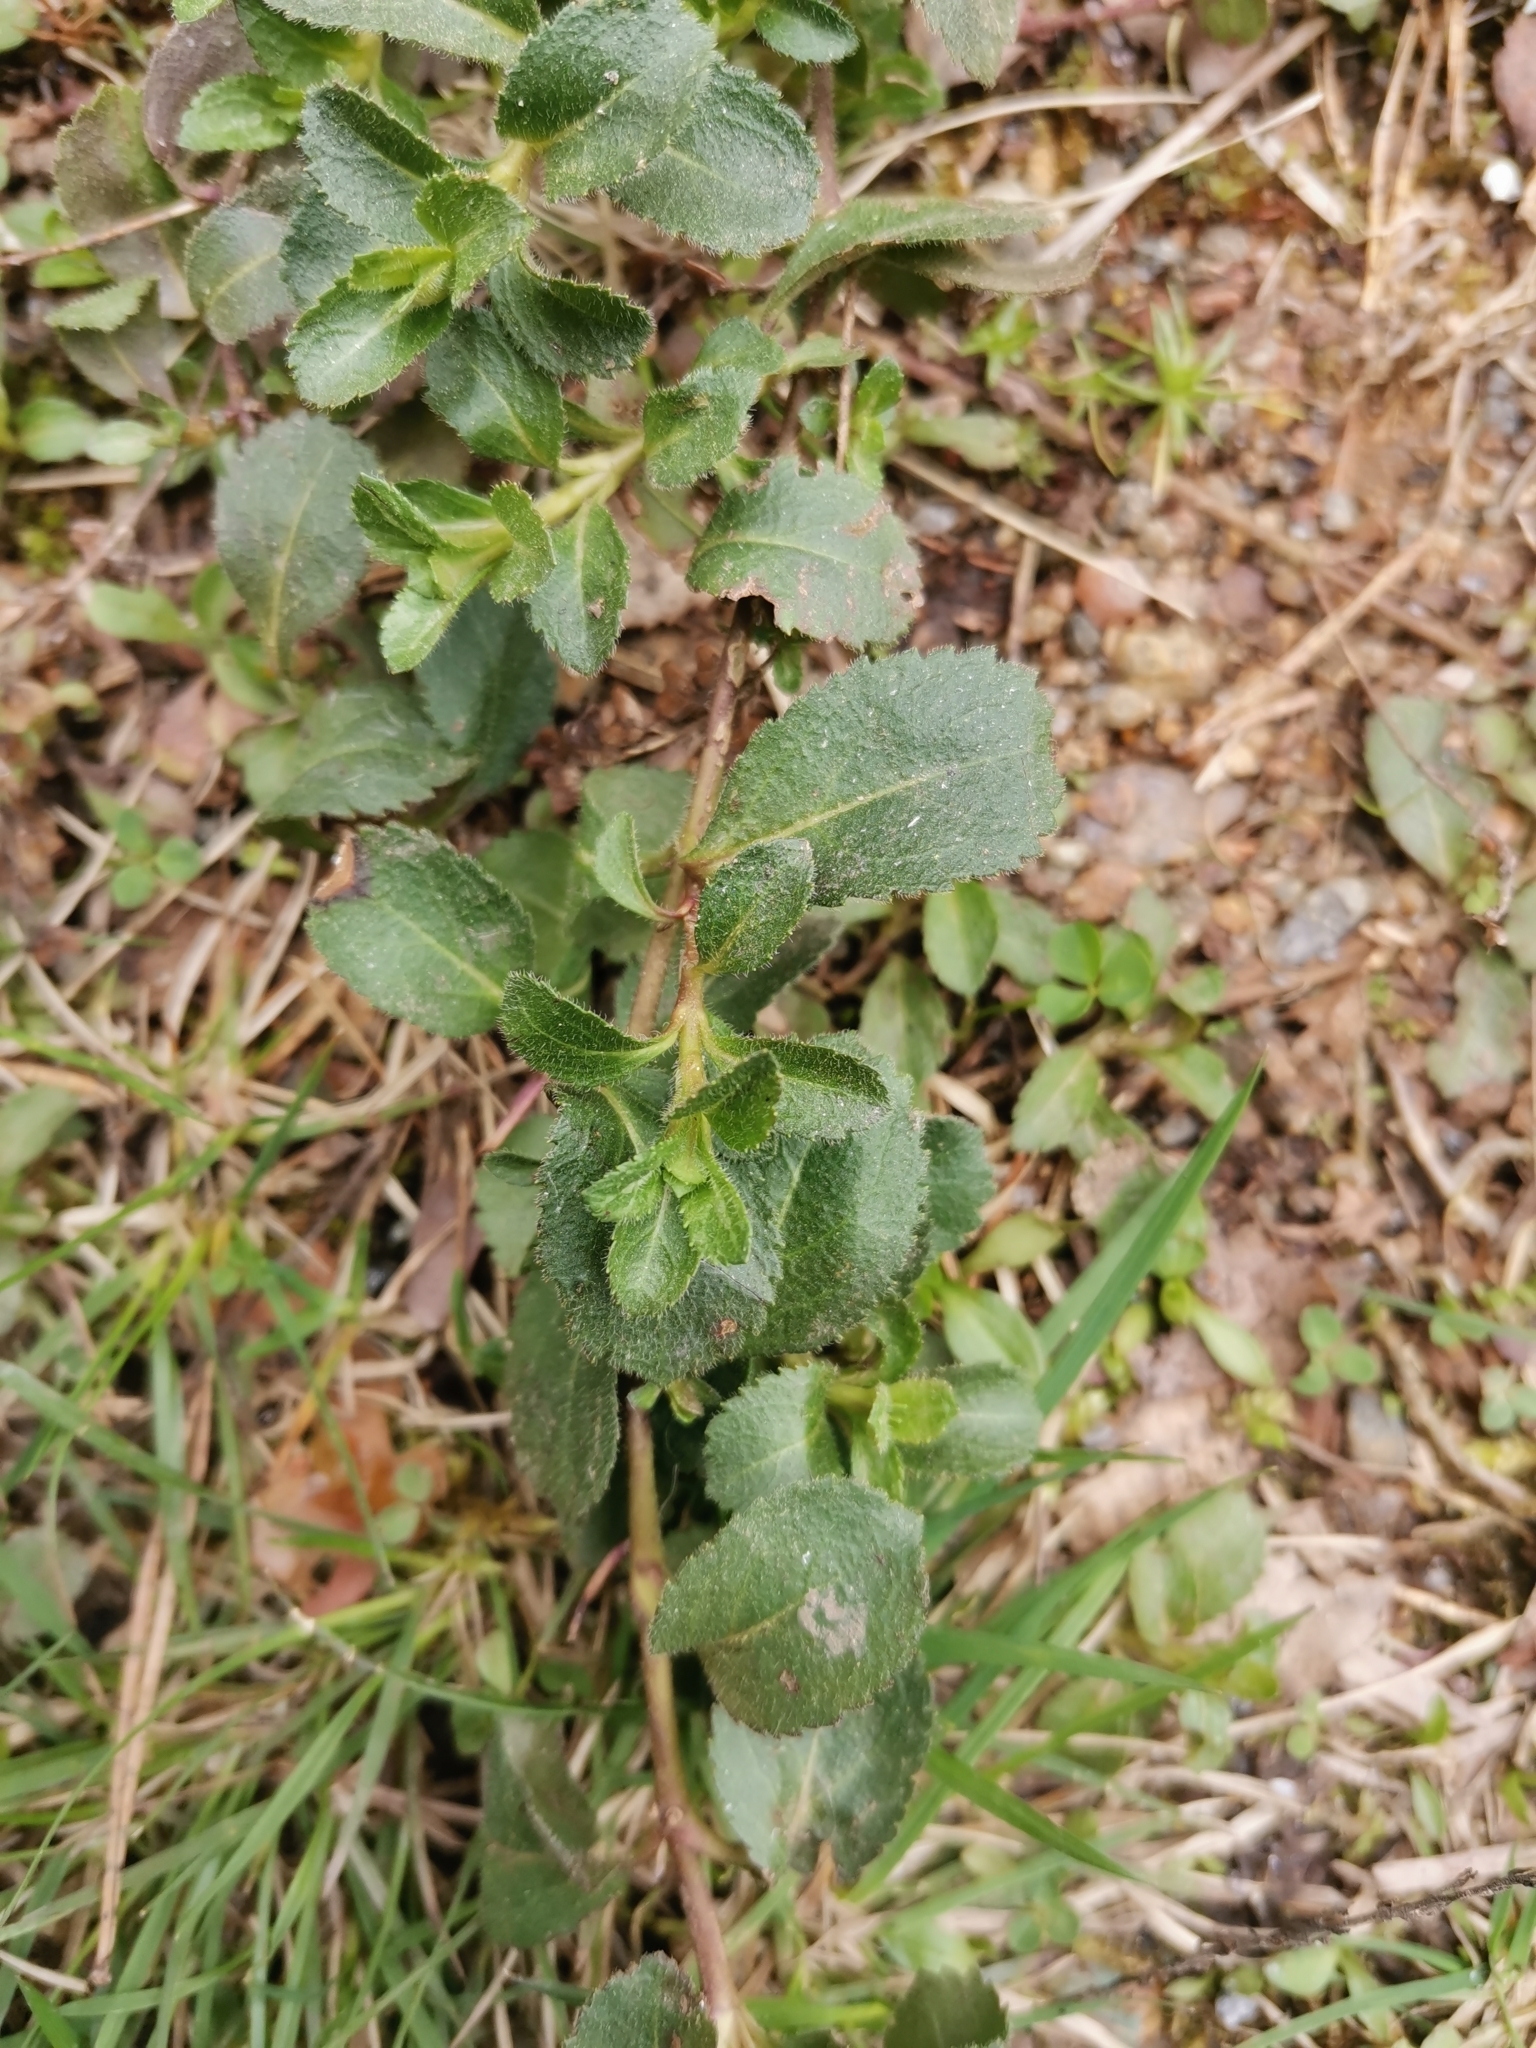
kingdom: Plantae
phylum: Tracheophyta
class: Magnoliopsida
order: Lamiales
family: Plantaginaceae
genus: Veronica
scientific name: Veronica officinalis
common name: Common speedwell
